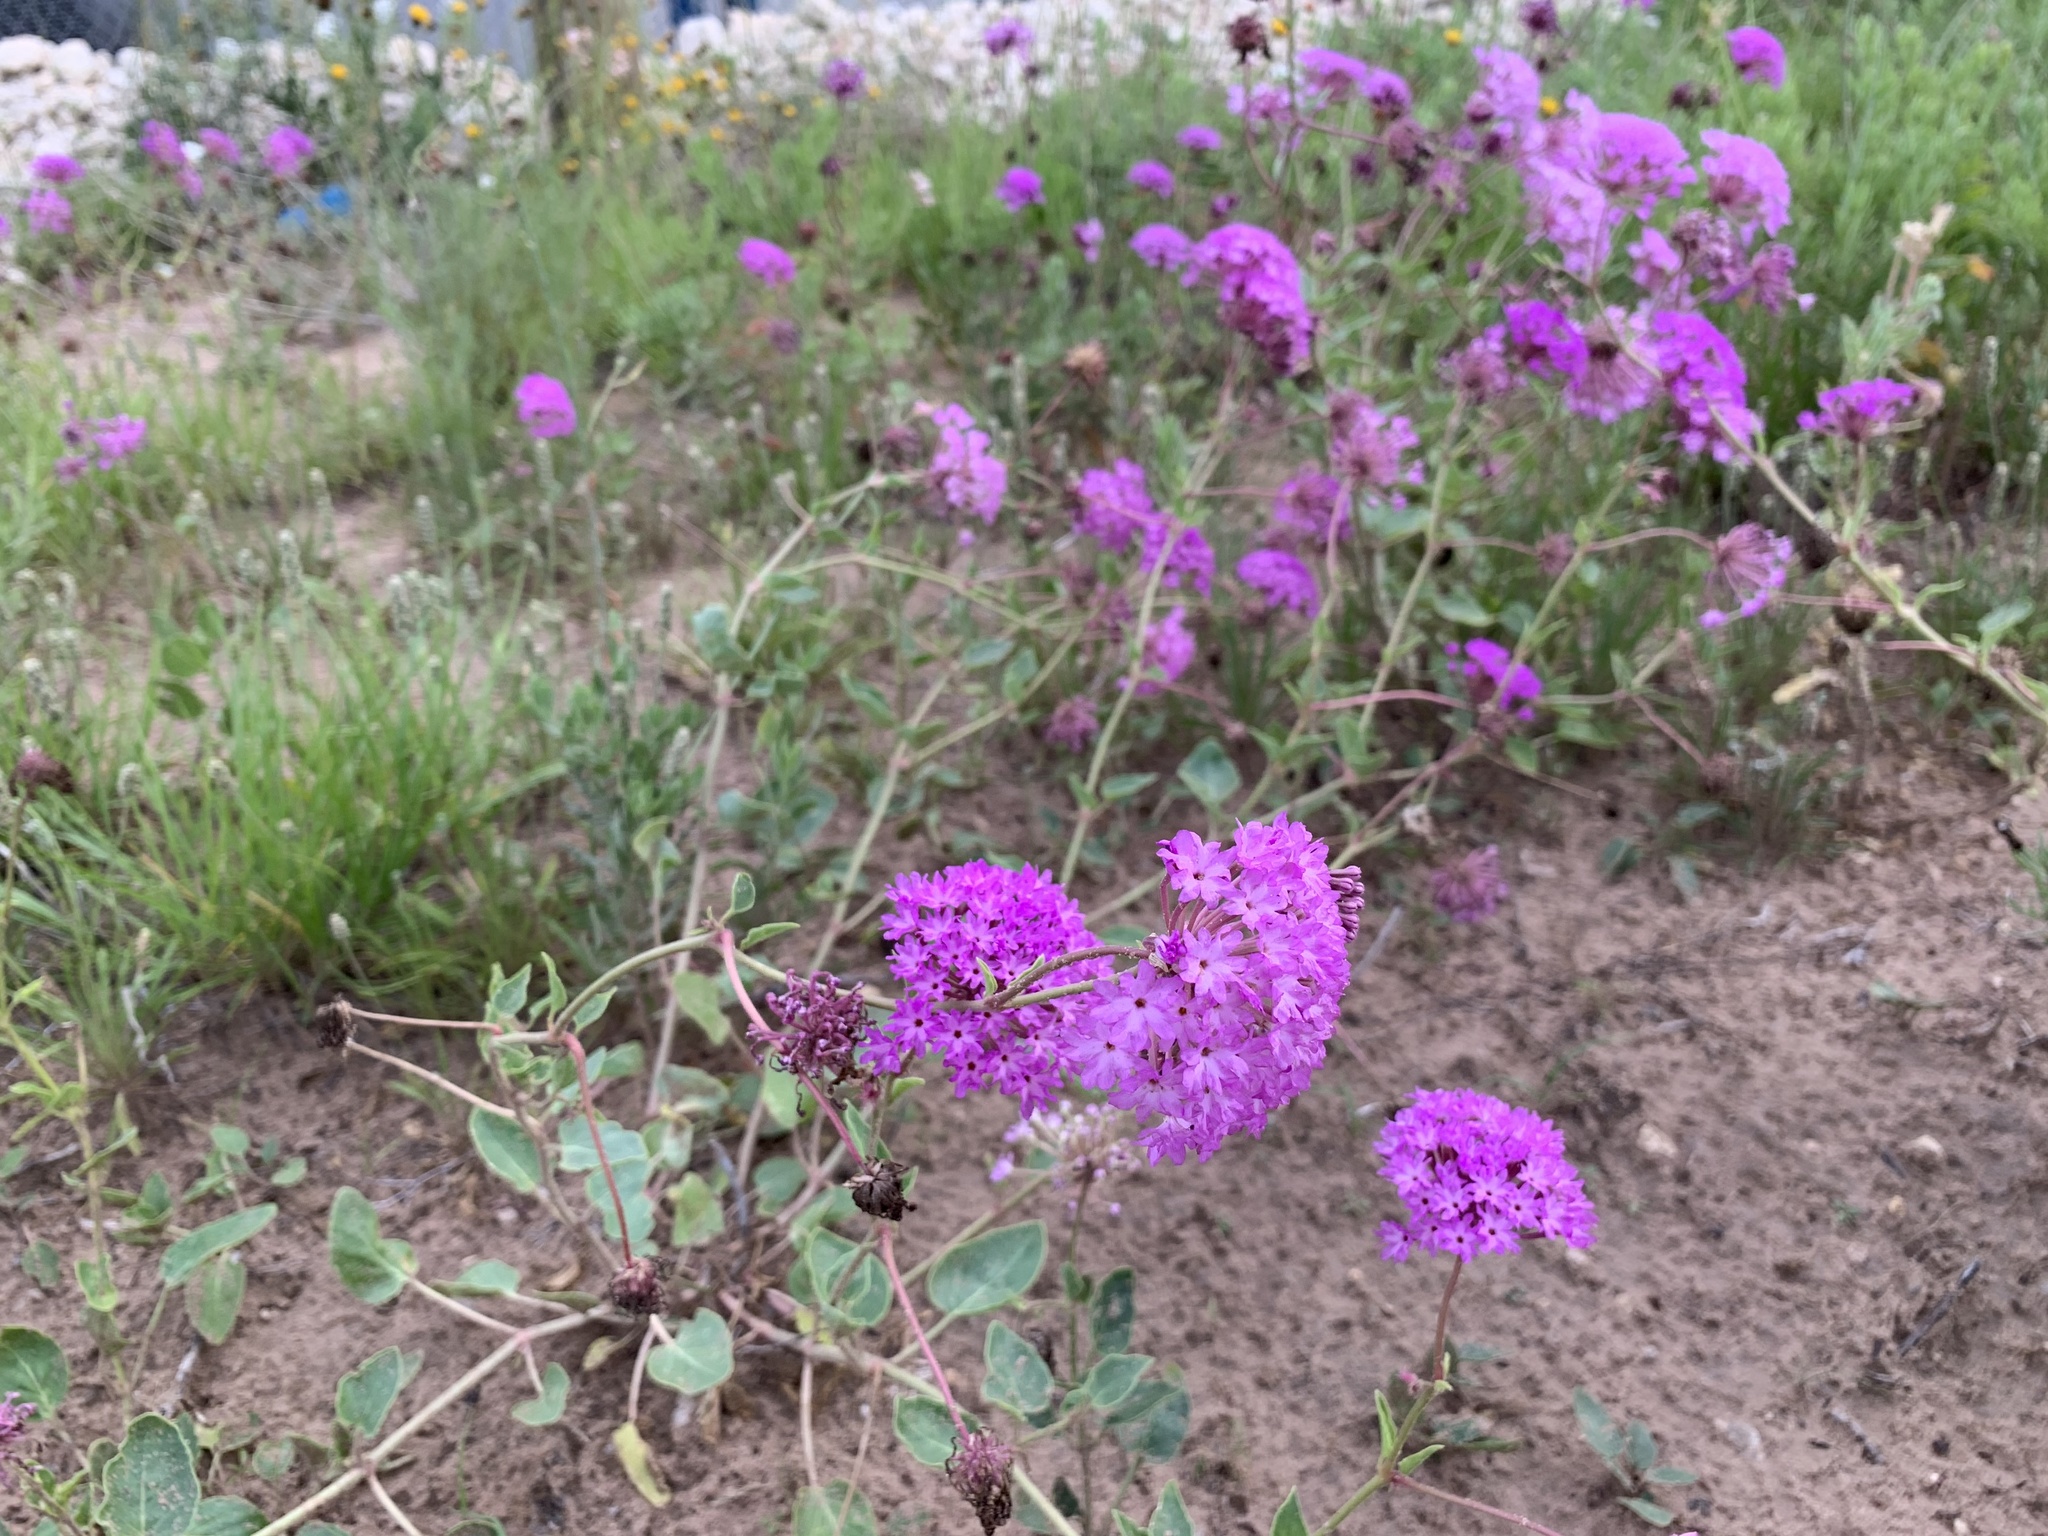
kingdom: Plantae
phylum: Tracheophyta
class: Magnoliopsida
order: Caryophyllales
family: Nyctaginaceae
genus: Abronia
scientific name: Abronia fragrans
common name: Fragrant sand-verbena
